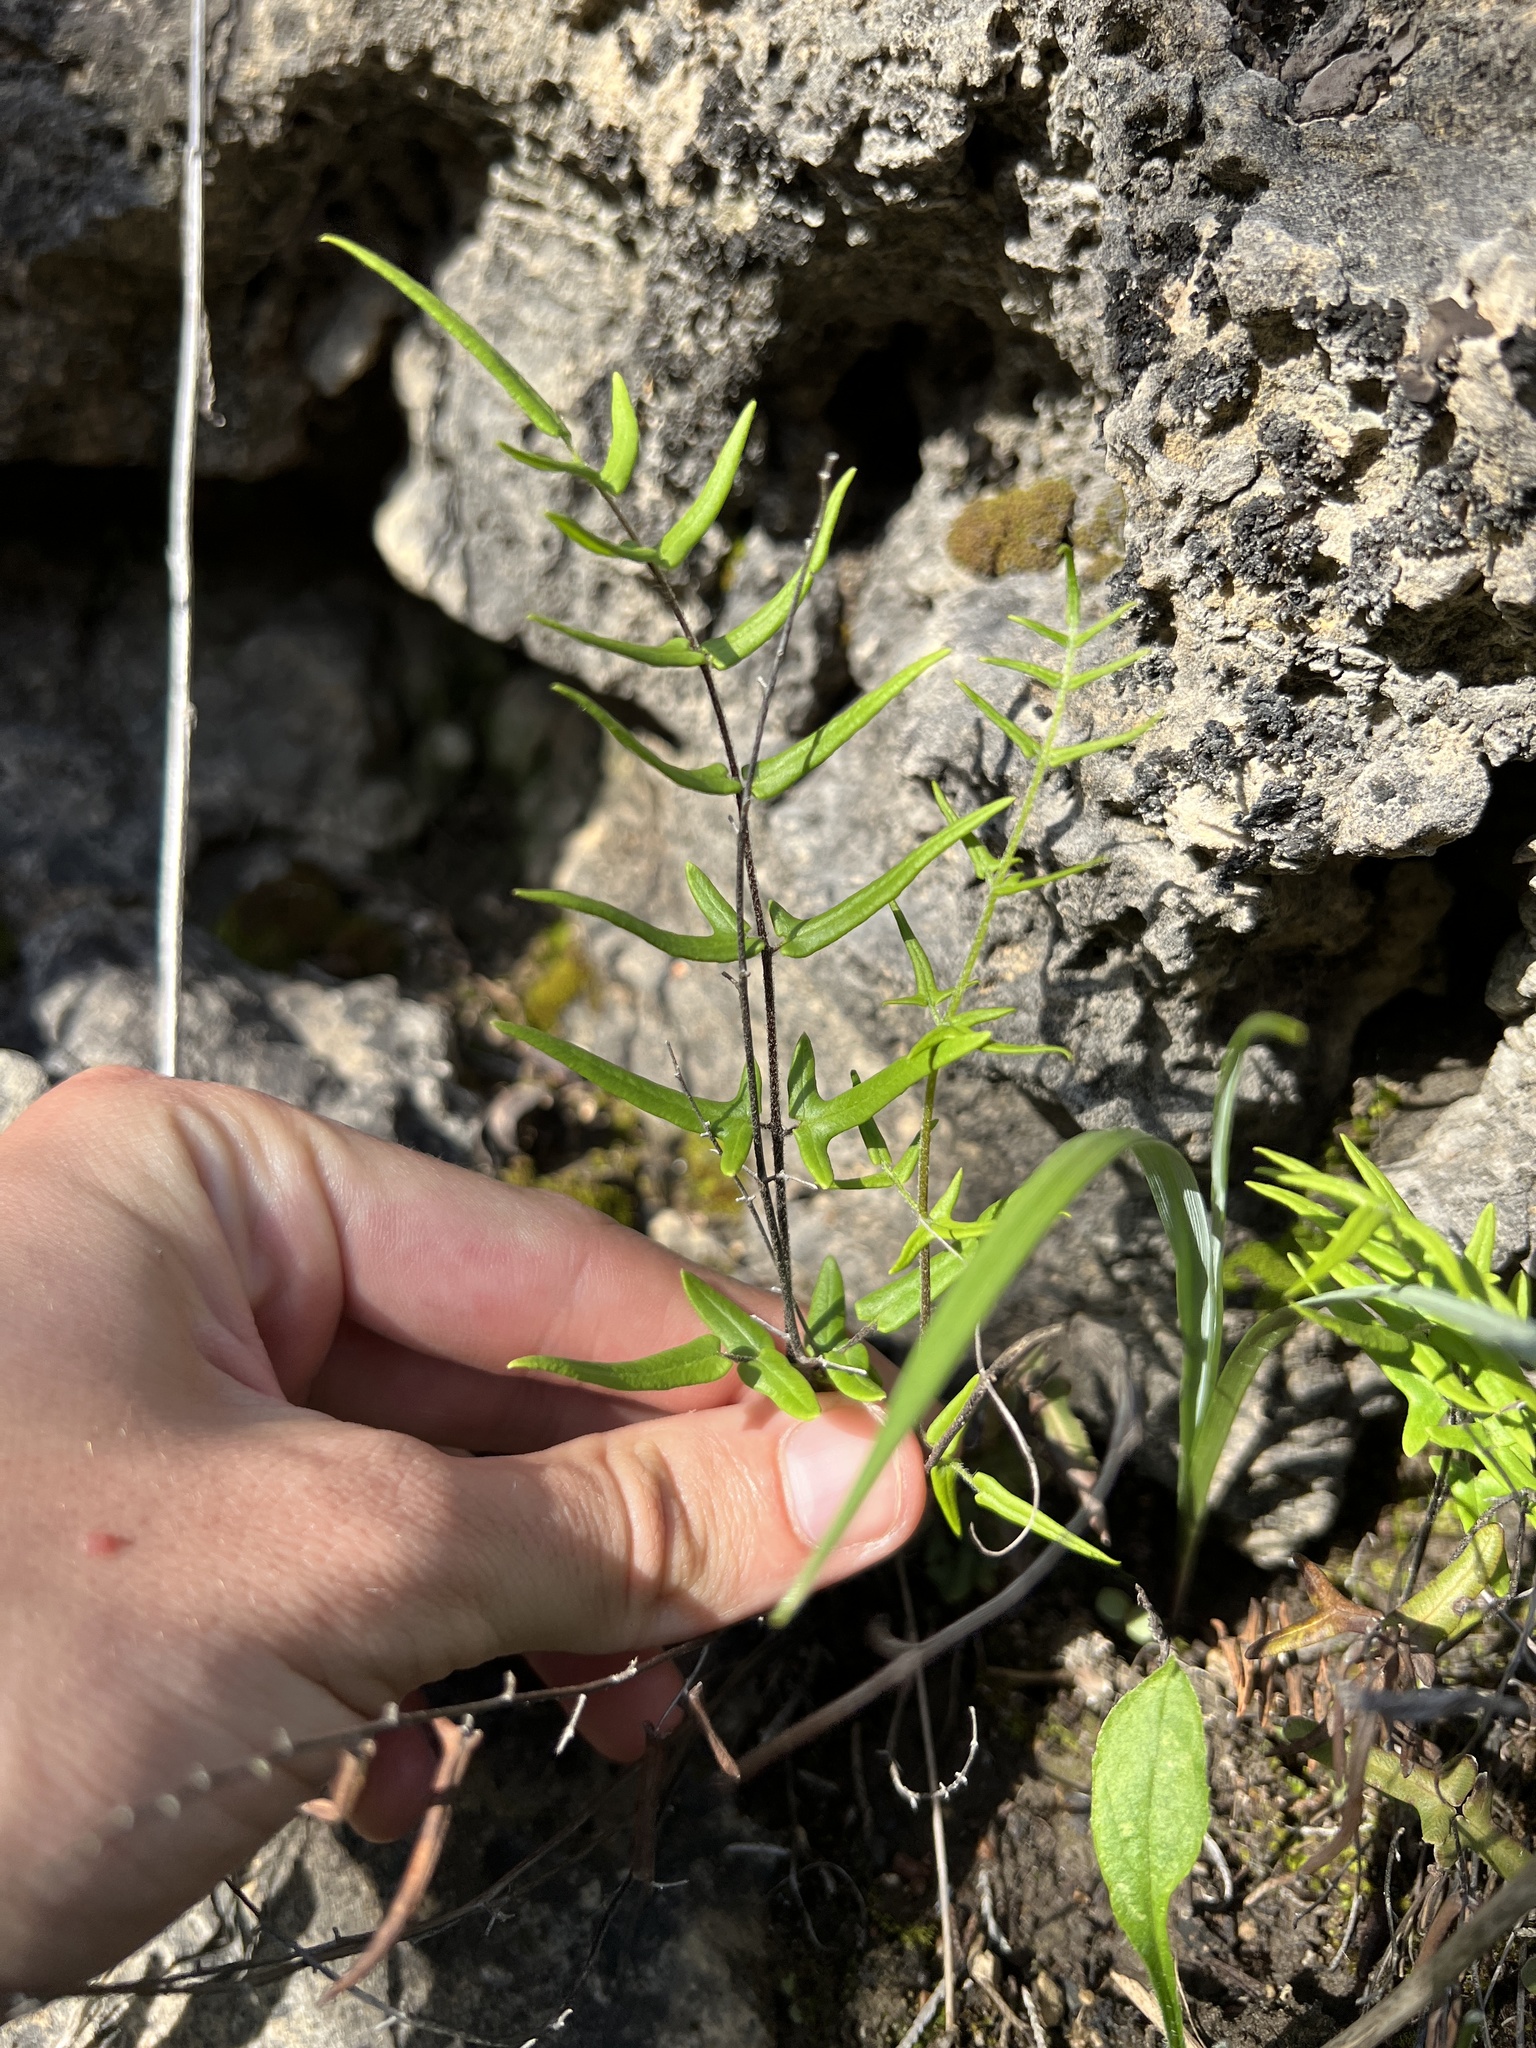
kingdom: Plantae
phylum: Tracheophyta
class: Polypodiopsida
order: Polypodiales
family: Pteridaceae
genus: Pellaea
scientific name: Pellaea atropurpurea
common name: Hairy cliffbrake
